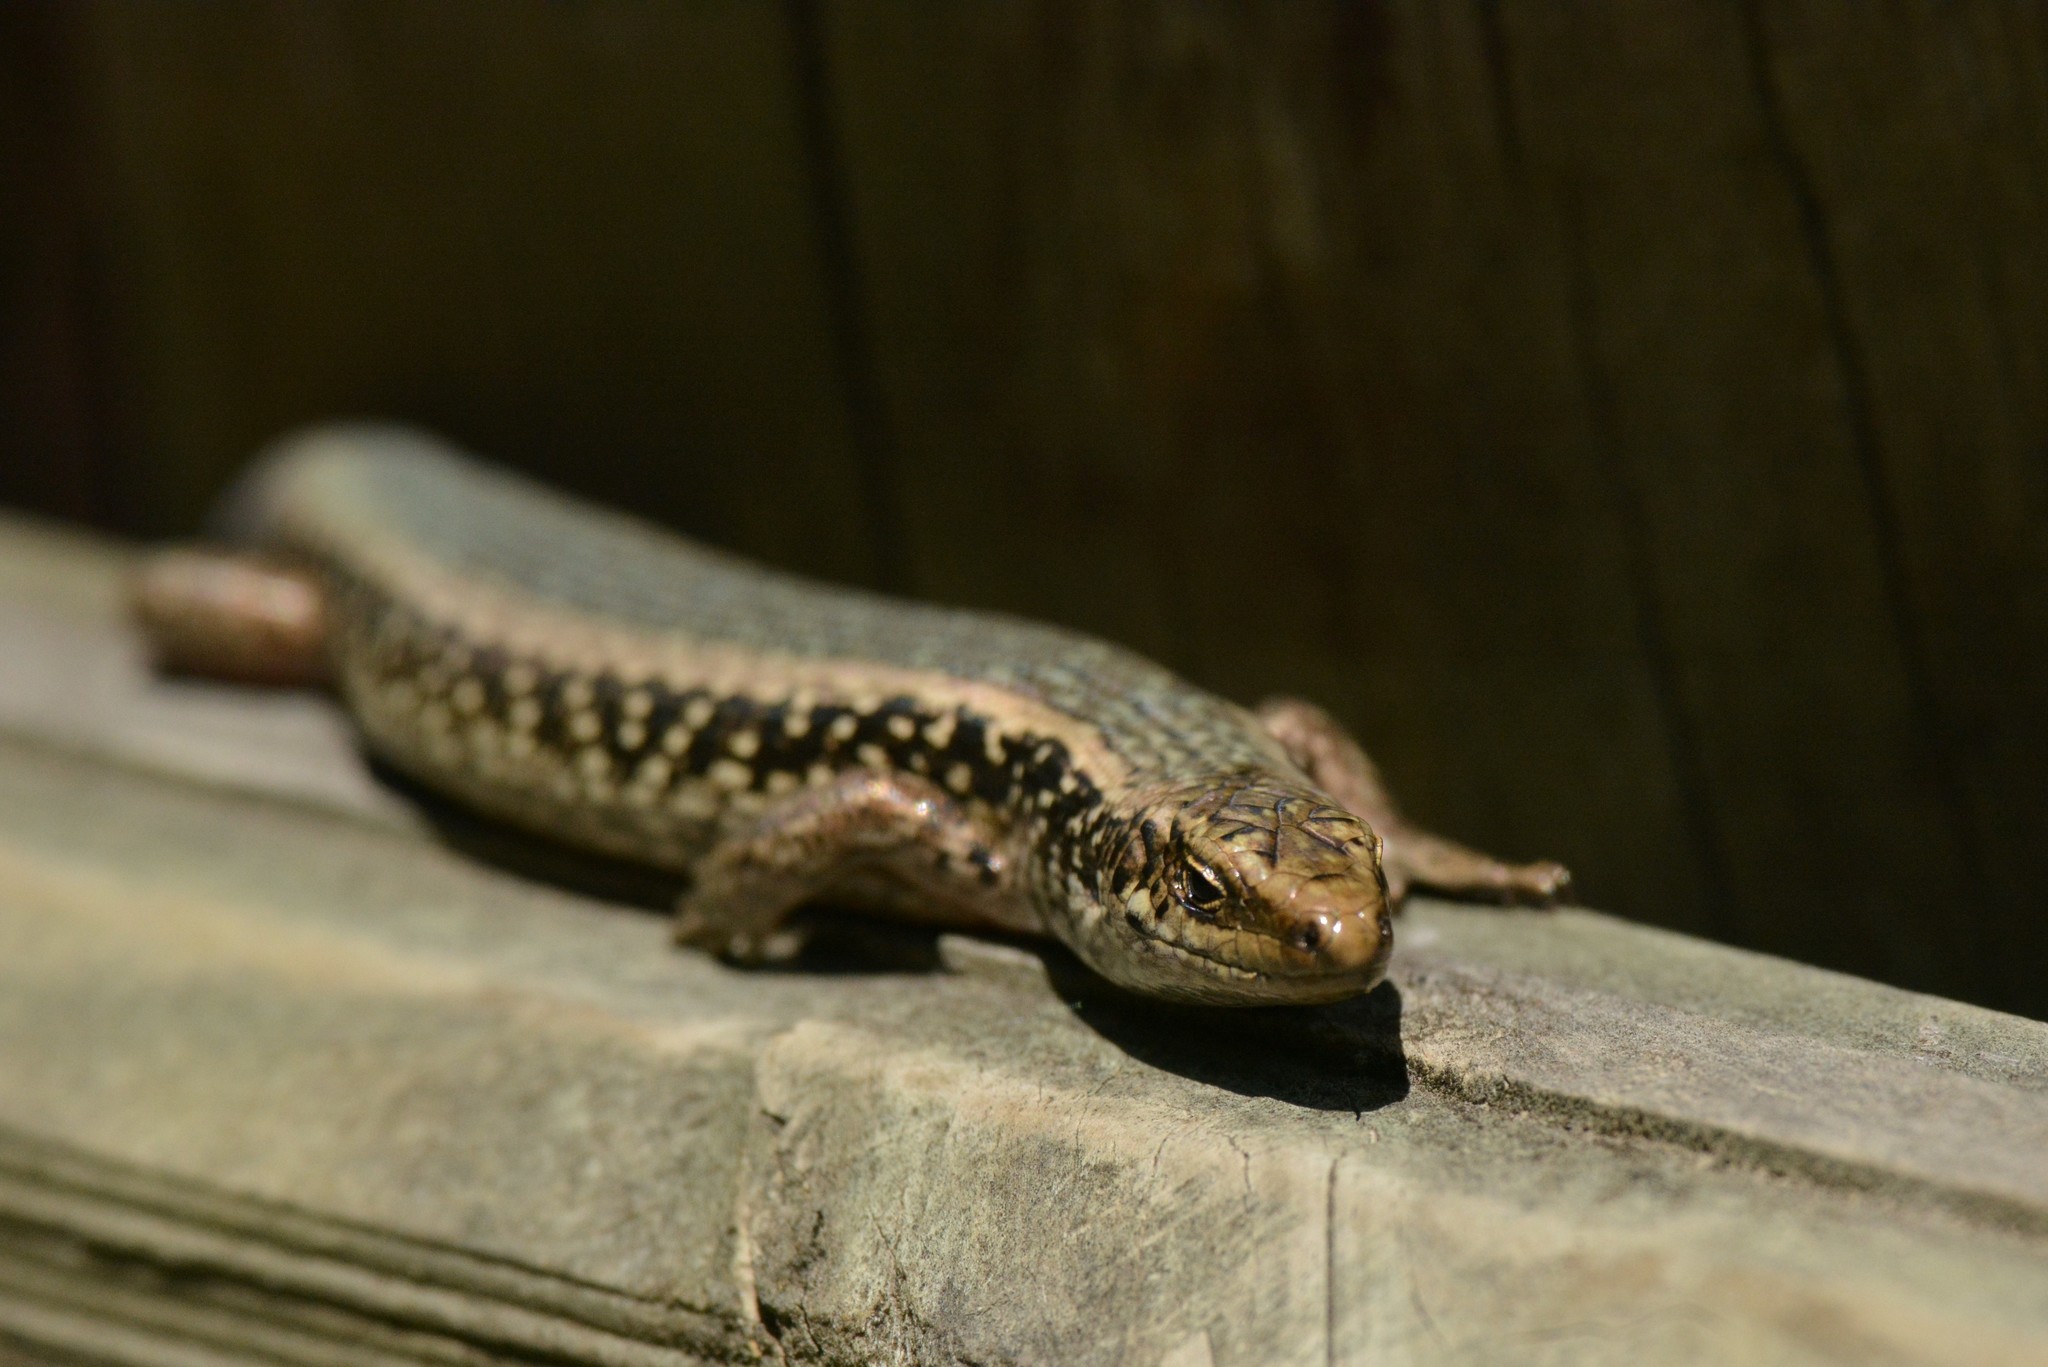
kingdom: Animalia
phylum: Chordata
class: Squamata
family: Scincidae
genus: Oligosoma
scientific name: Oligosoma kokowai
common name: Northern spotted skink
